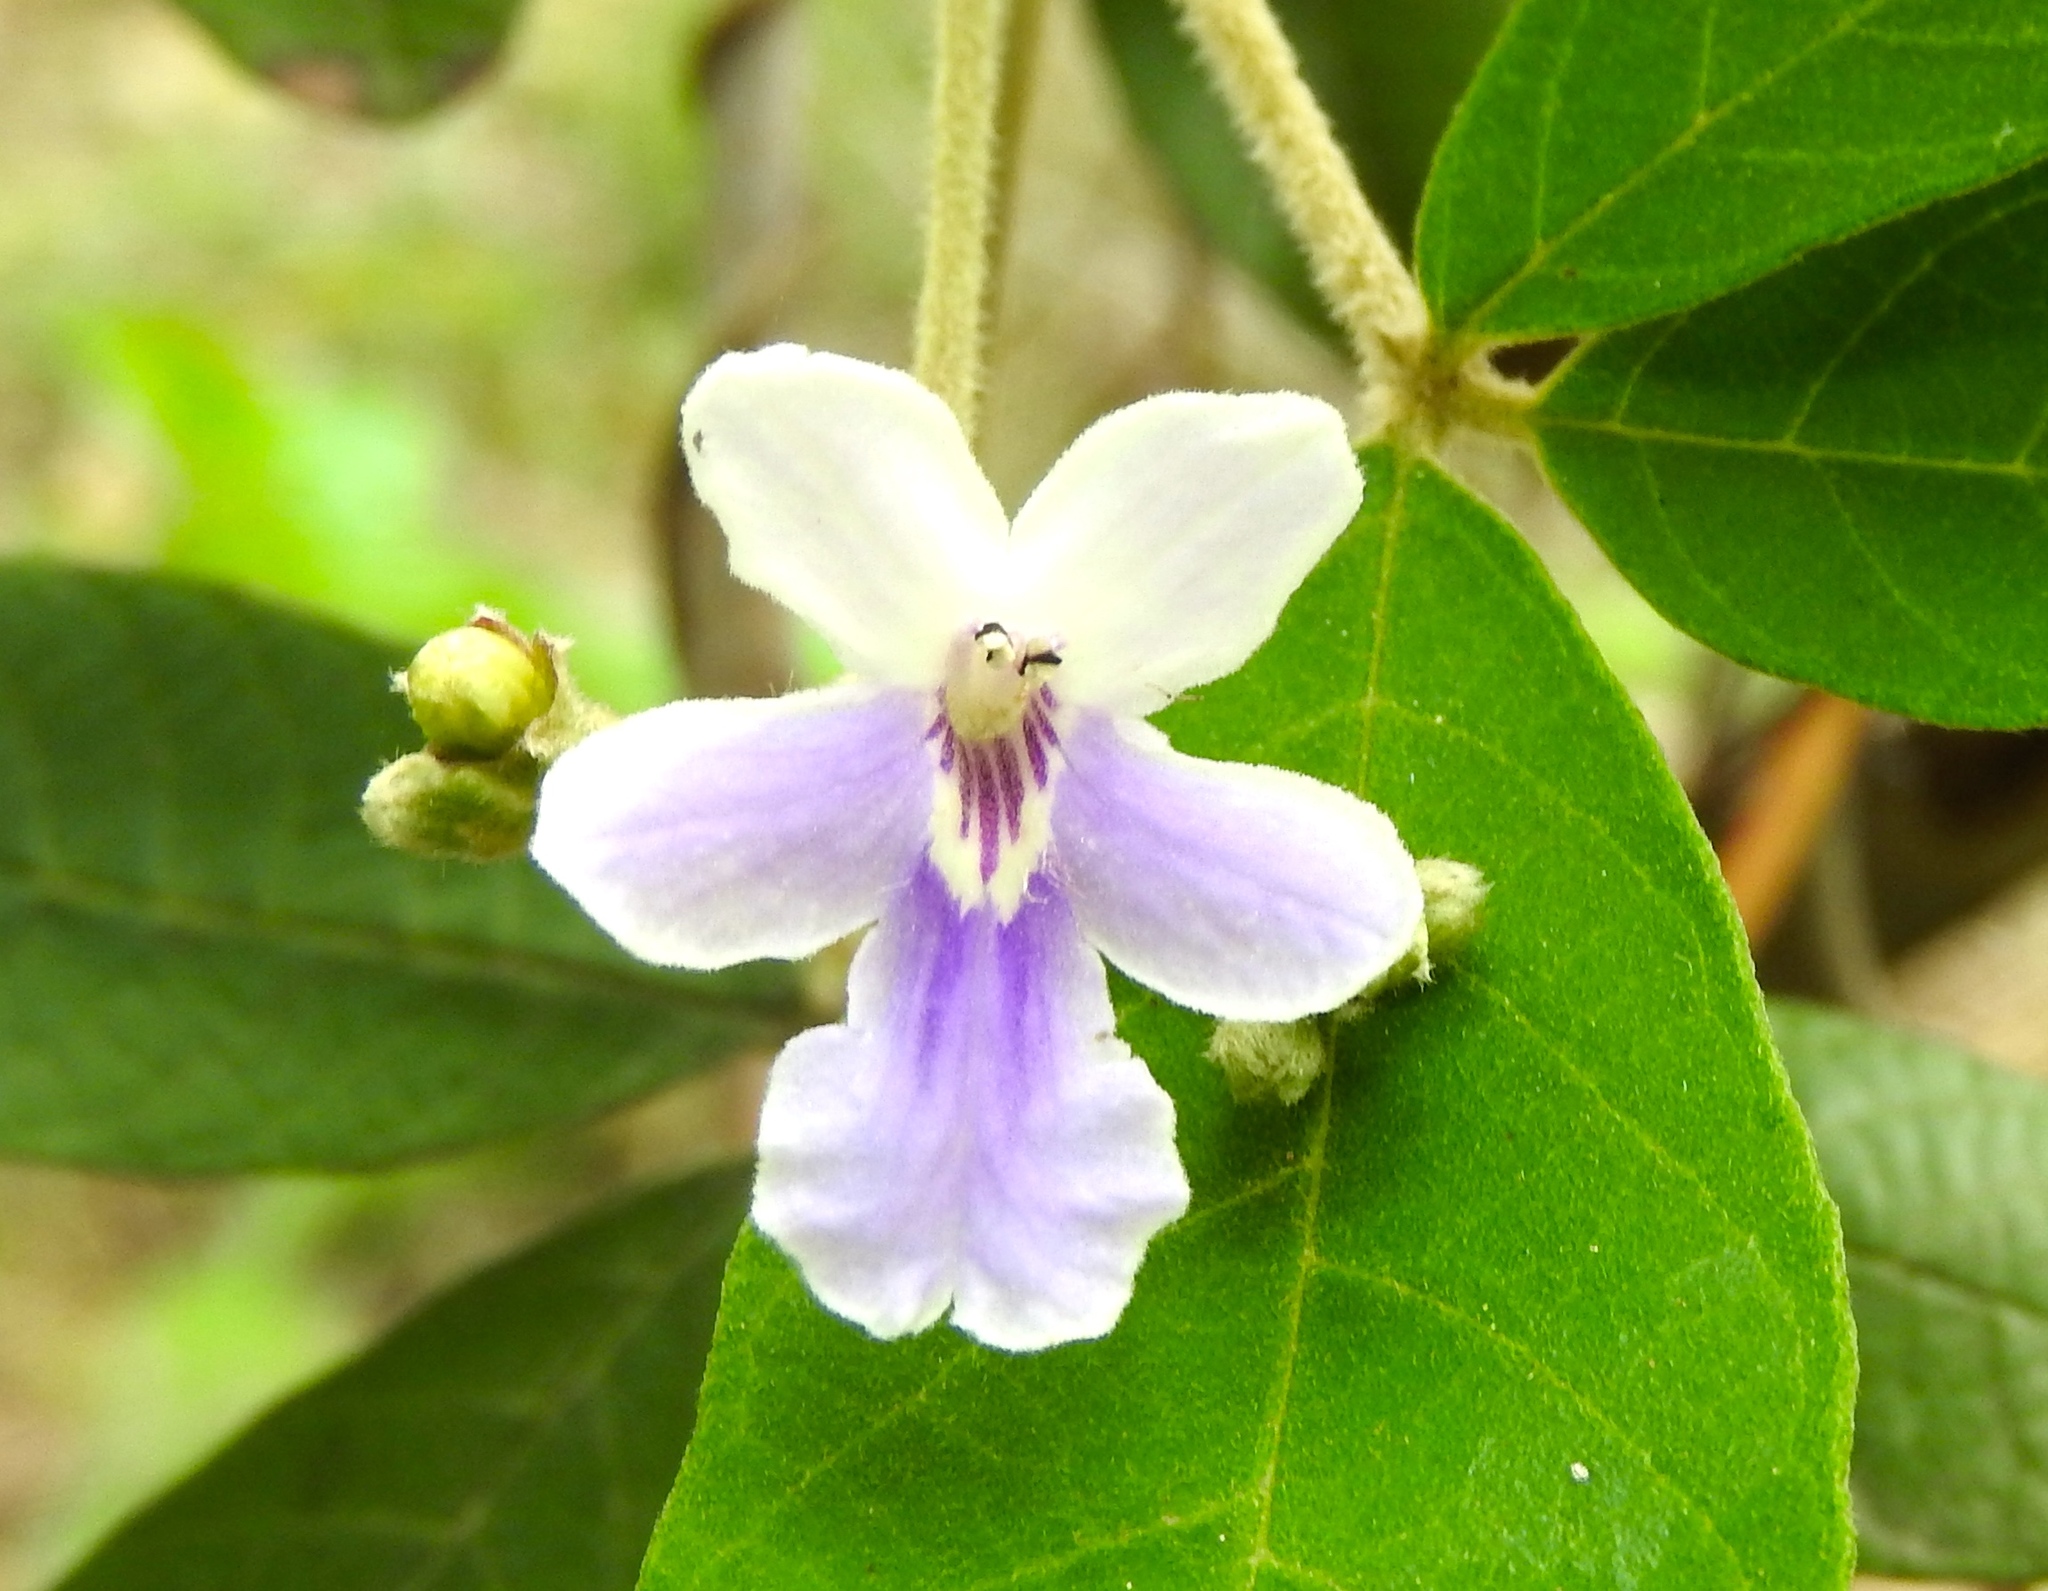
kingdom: Plantae
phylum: Tracheophyta
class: Magnoliopsida
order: Lamiales
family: Lamiaceae
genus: Vitex
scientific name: Vitex mollis
